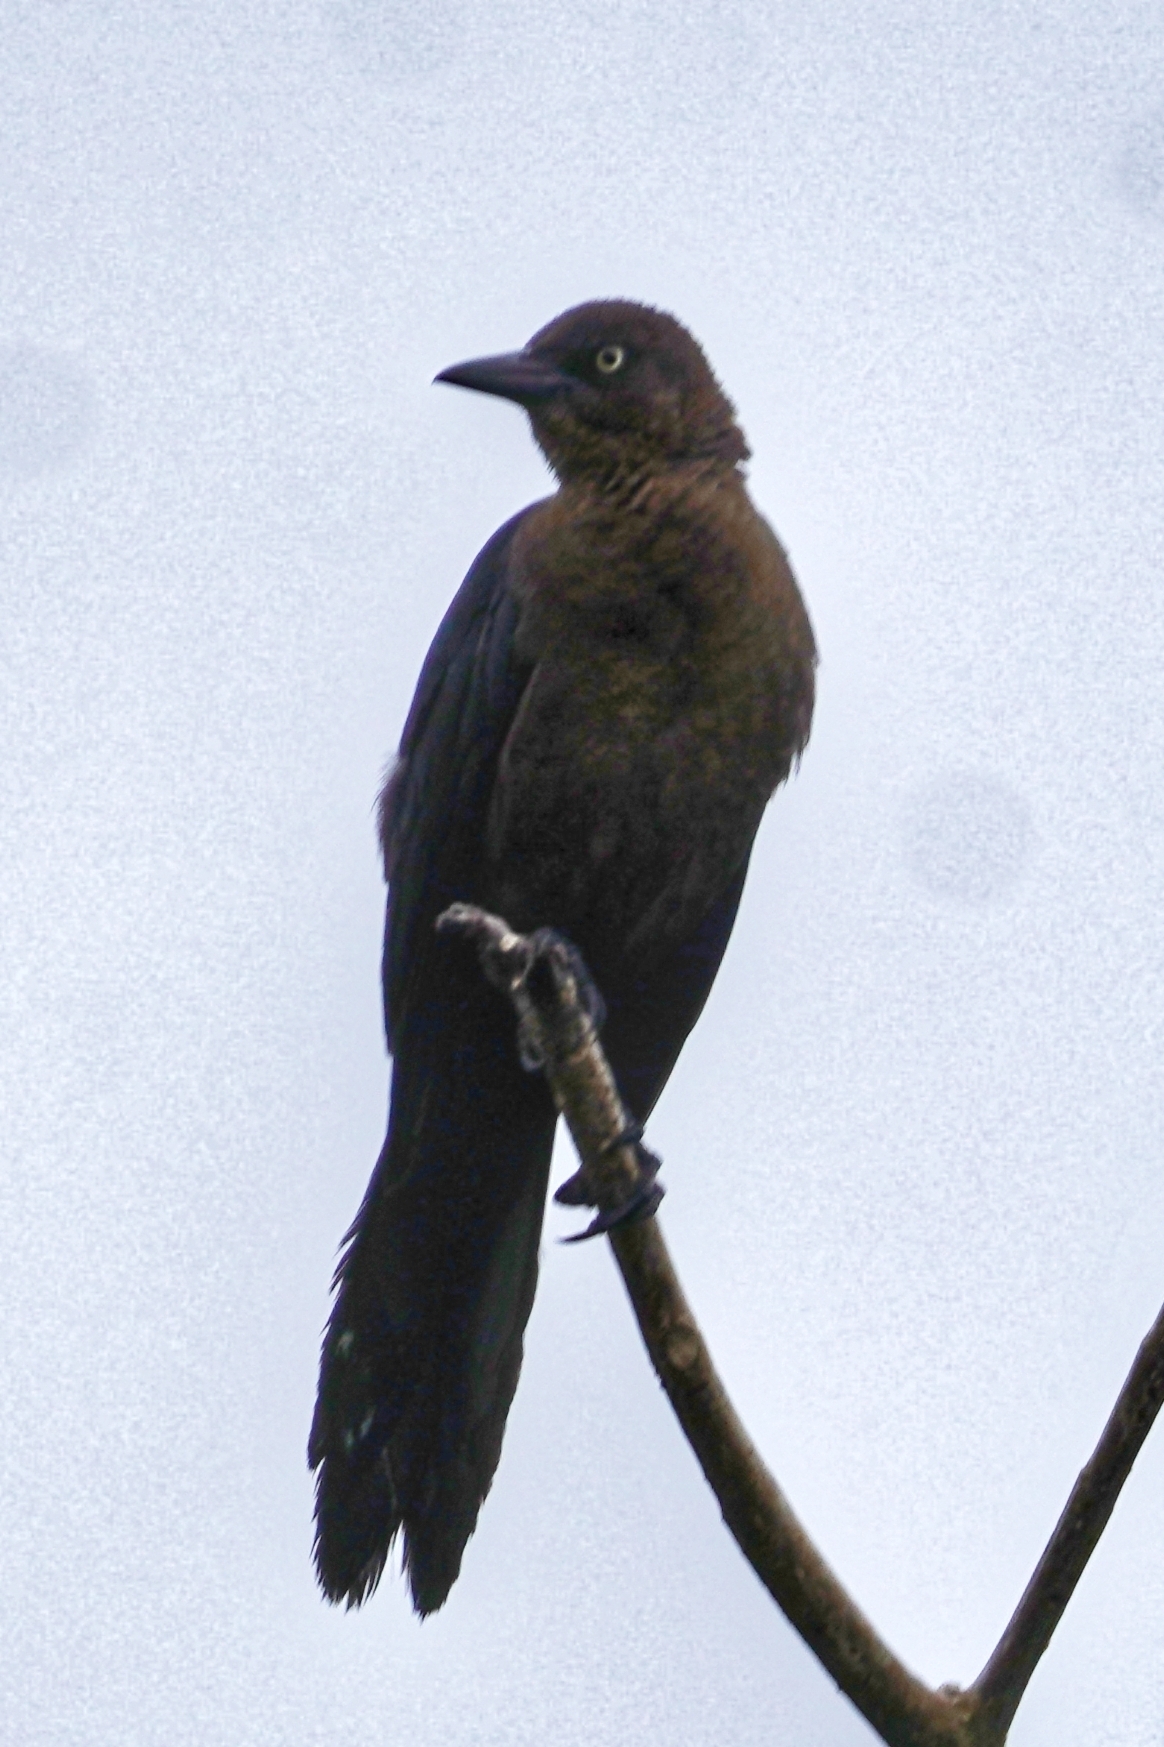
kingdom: Animalia
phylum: Chordata
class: Aves
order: Passeriformes
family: Icteridae
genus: Quiscalus
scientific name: Quiscalus mexicanus
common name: Great-tailed grackle
